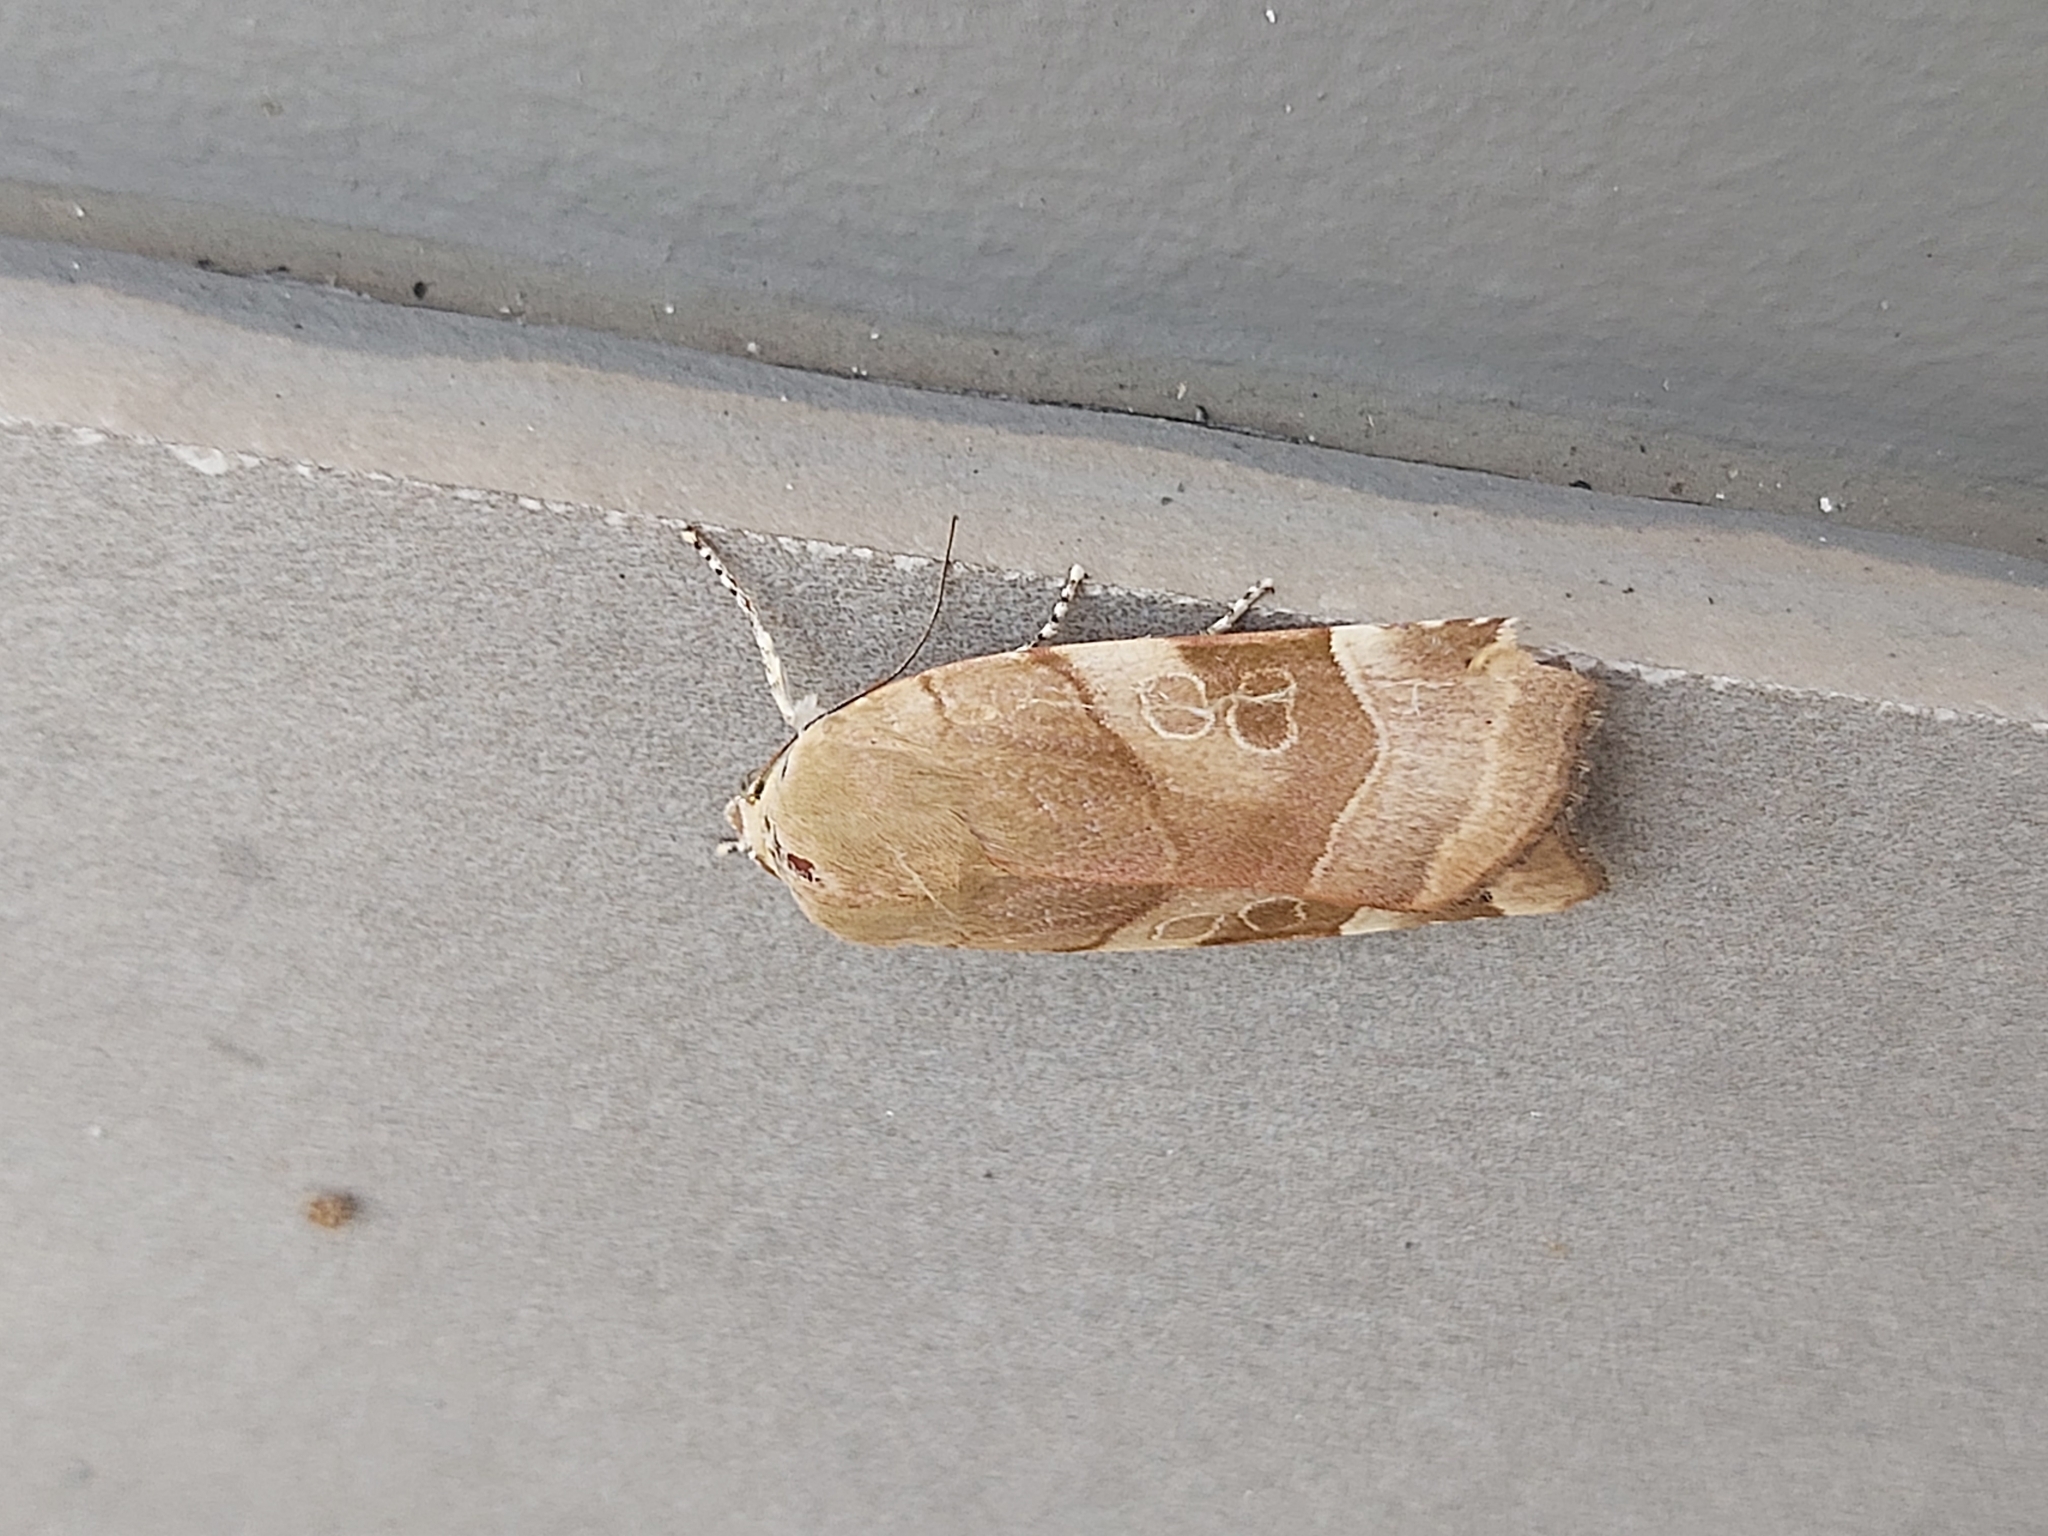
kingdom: Animalia
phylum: Arthropoda
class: Insecta
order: Lepidoptera
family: Noctuidae
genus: Noctua
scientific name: Noctua fimbriata
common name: Broad-bordered yellow underwing
